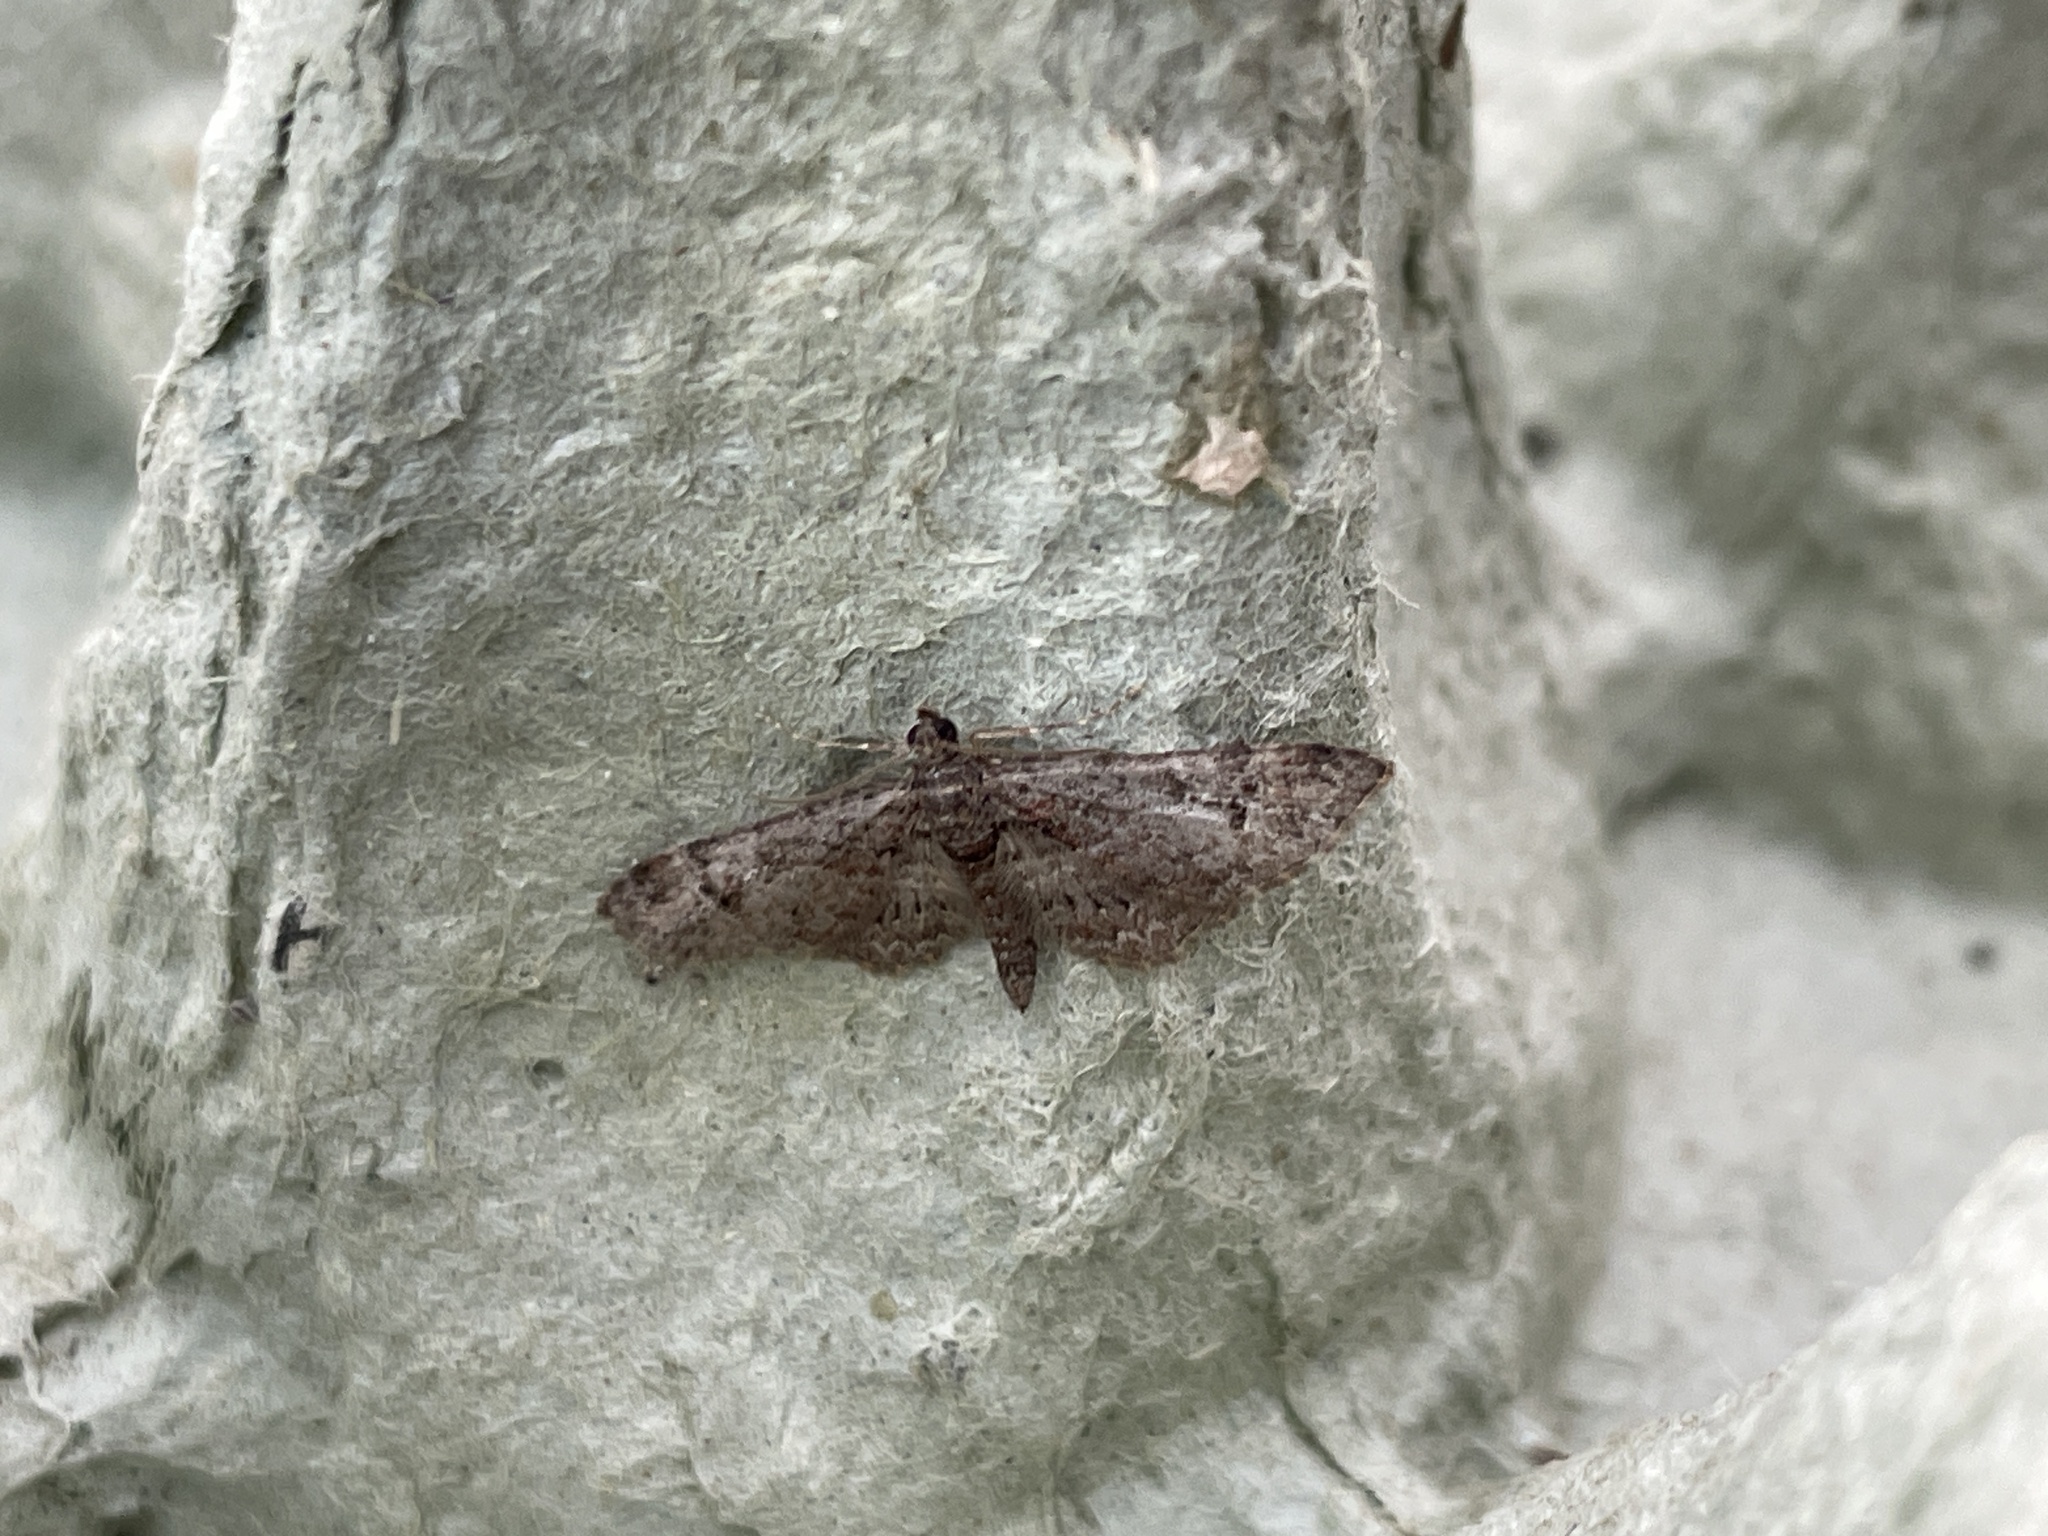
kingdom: Animalia
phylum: Arthropoda
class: Insecta
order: Lepidoptera
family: Geometridae
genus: Gymnoscelis
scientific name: Gymnoscelis rufifasciata
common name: Double-striped pug
